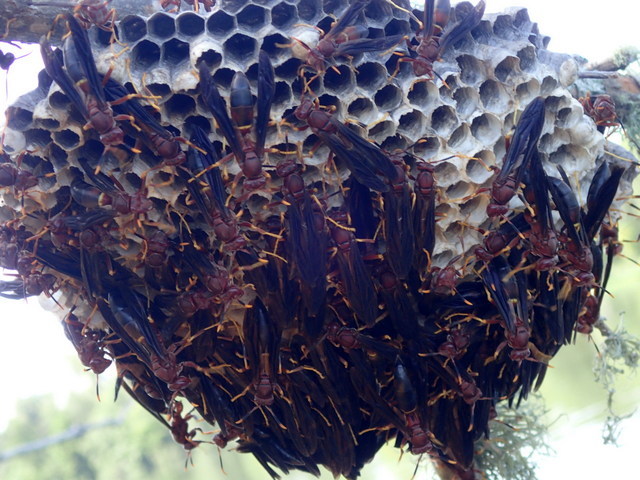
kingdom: Animalia
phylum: Arthropoda
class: Insecta
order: Hymenoptera
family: Eumenidae
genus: Polistes
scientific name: Polistes annularis
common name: Ringed paper wasp
